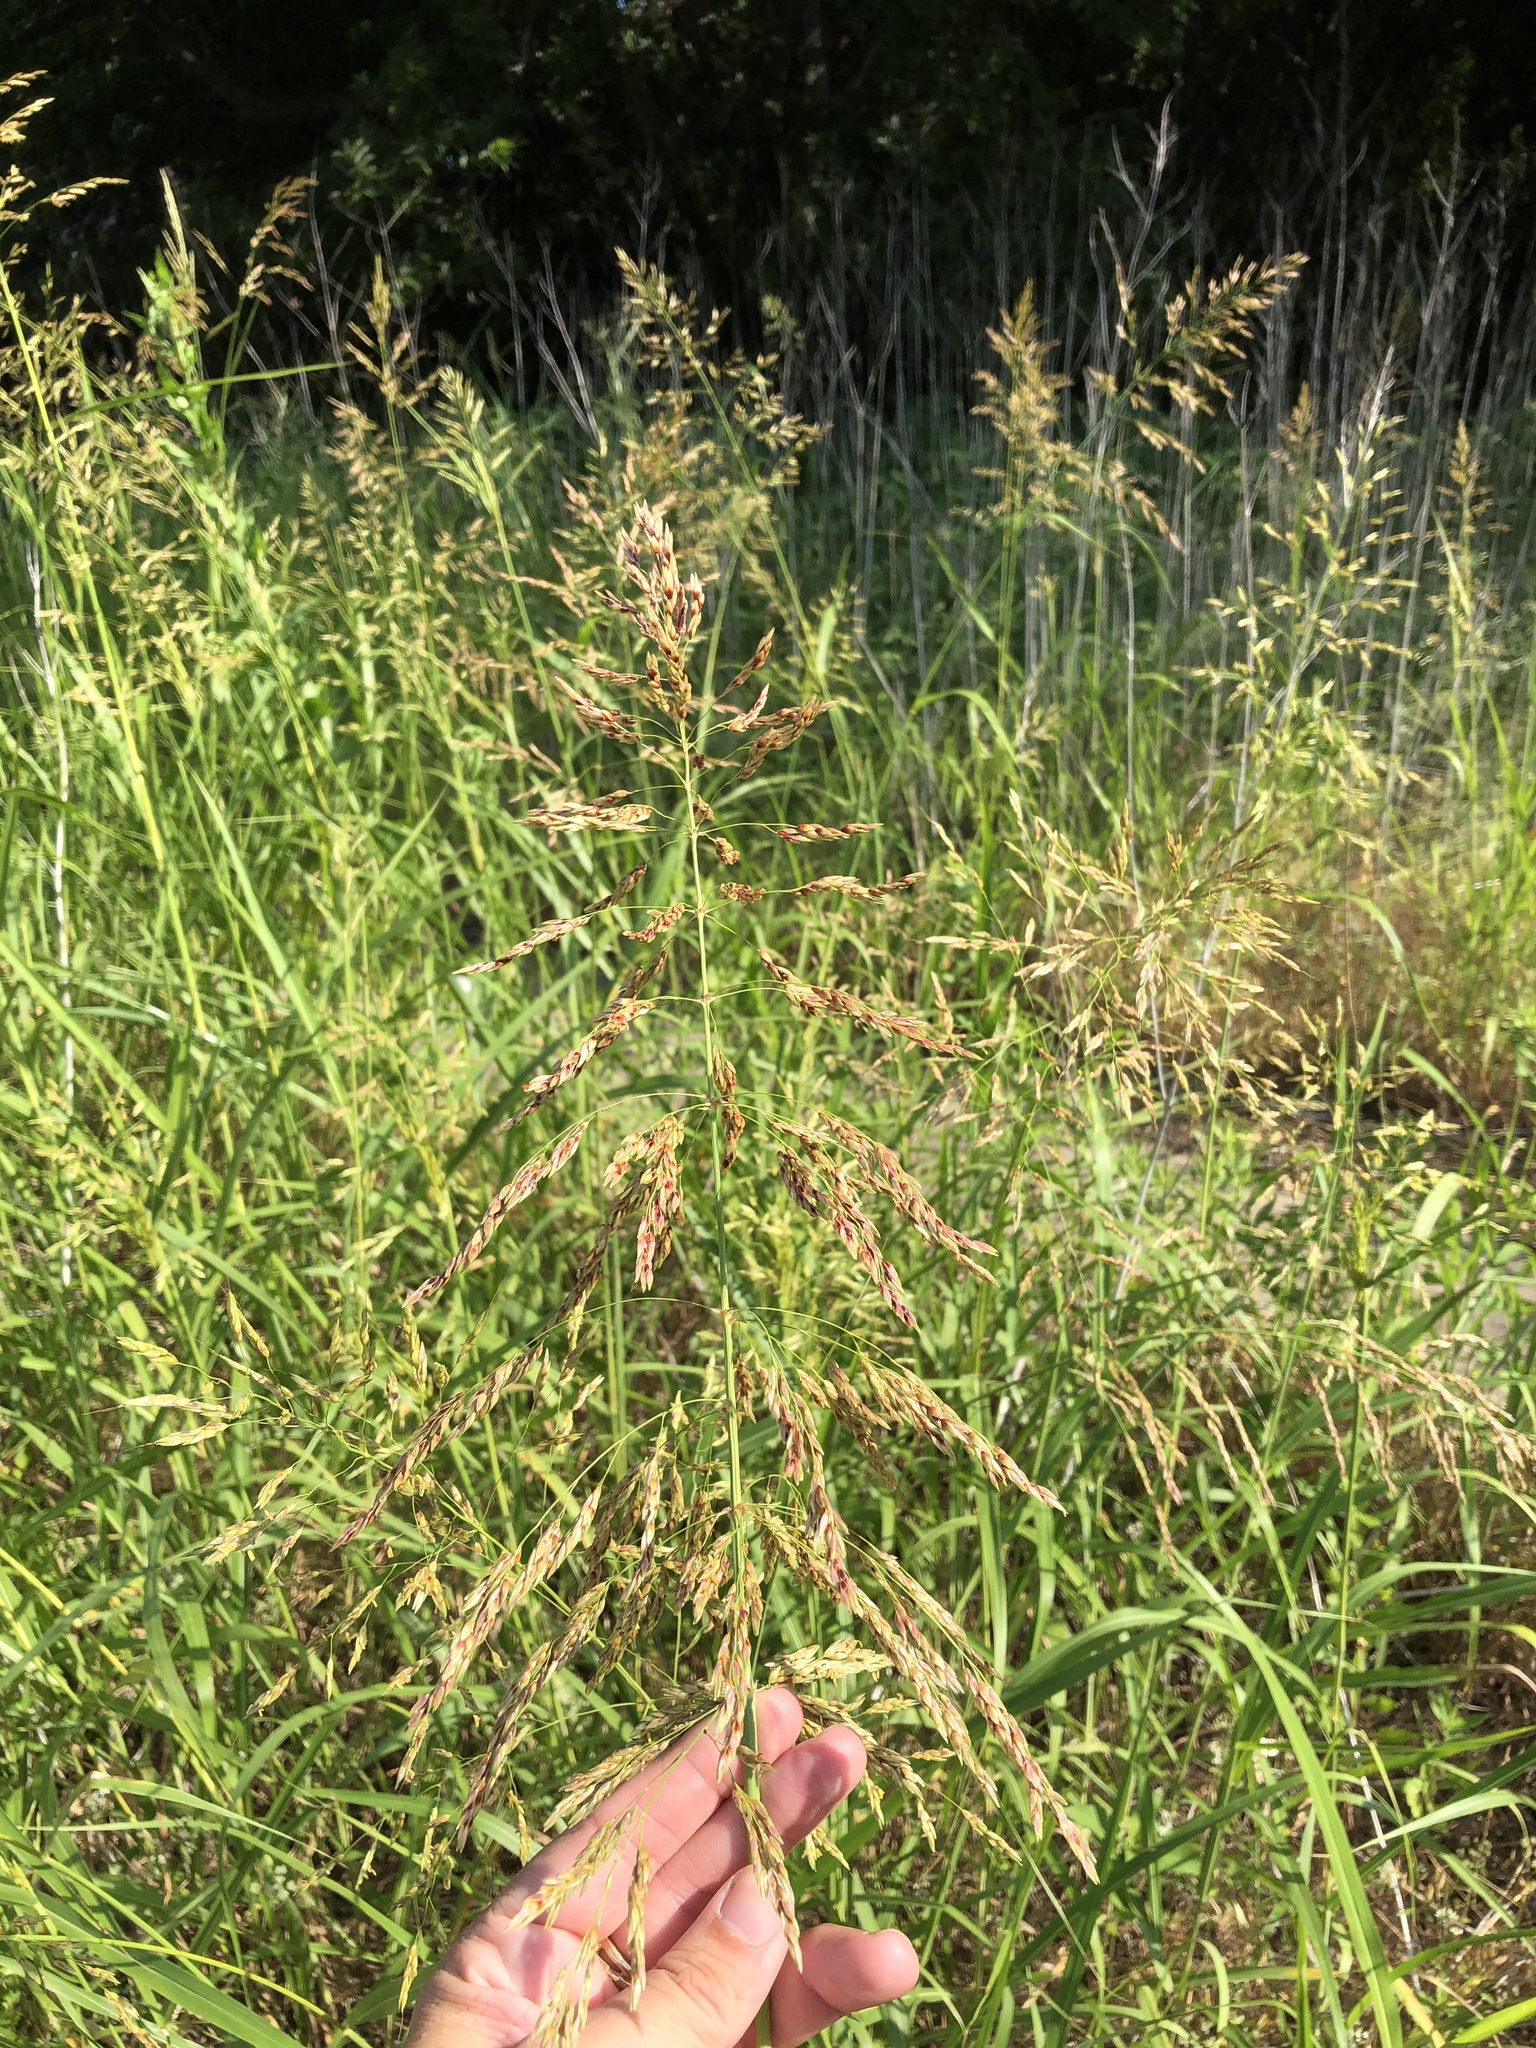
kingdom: Plantae
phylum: Tracheophyta
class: Liliopsida
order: Poales
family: Poaceae
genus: Sorghum
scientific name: Sorghum halepense
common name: Johnson-grass
